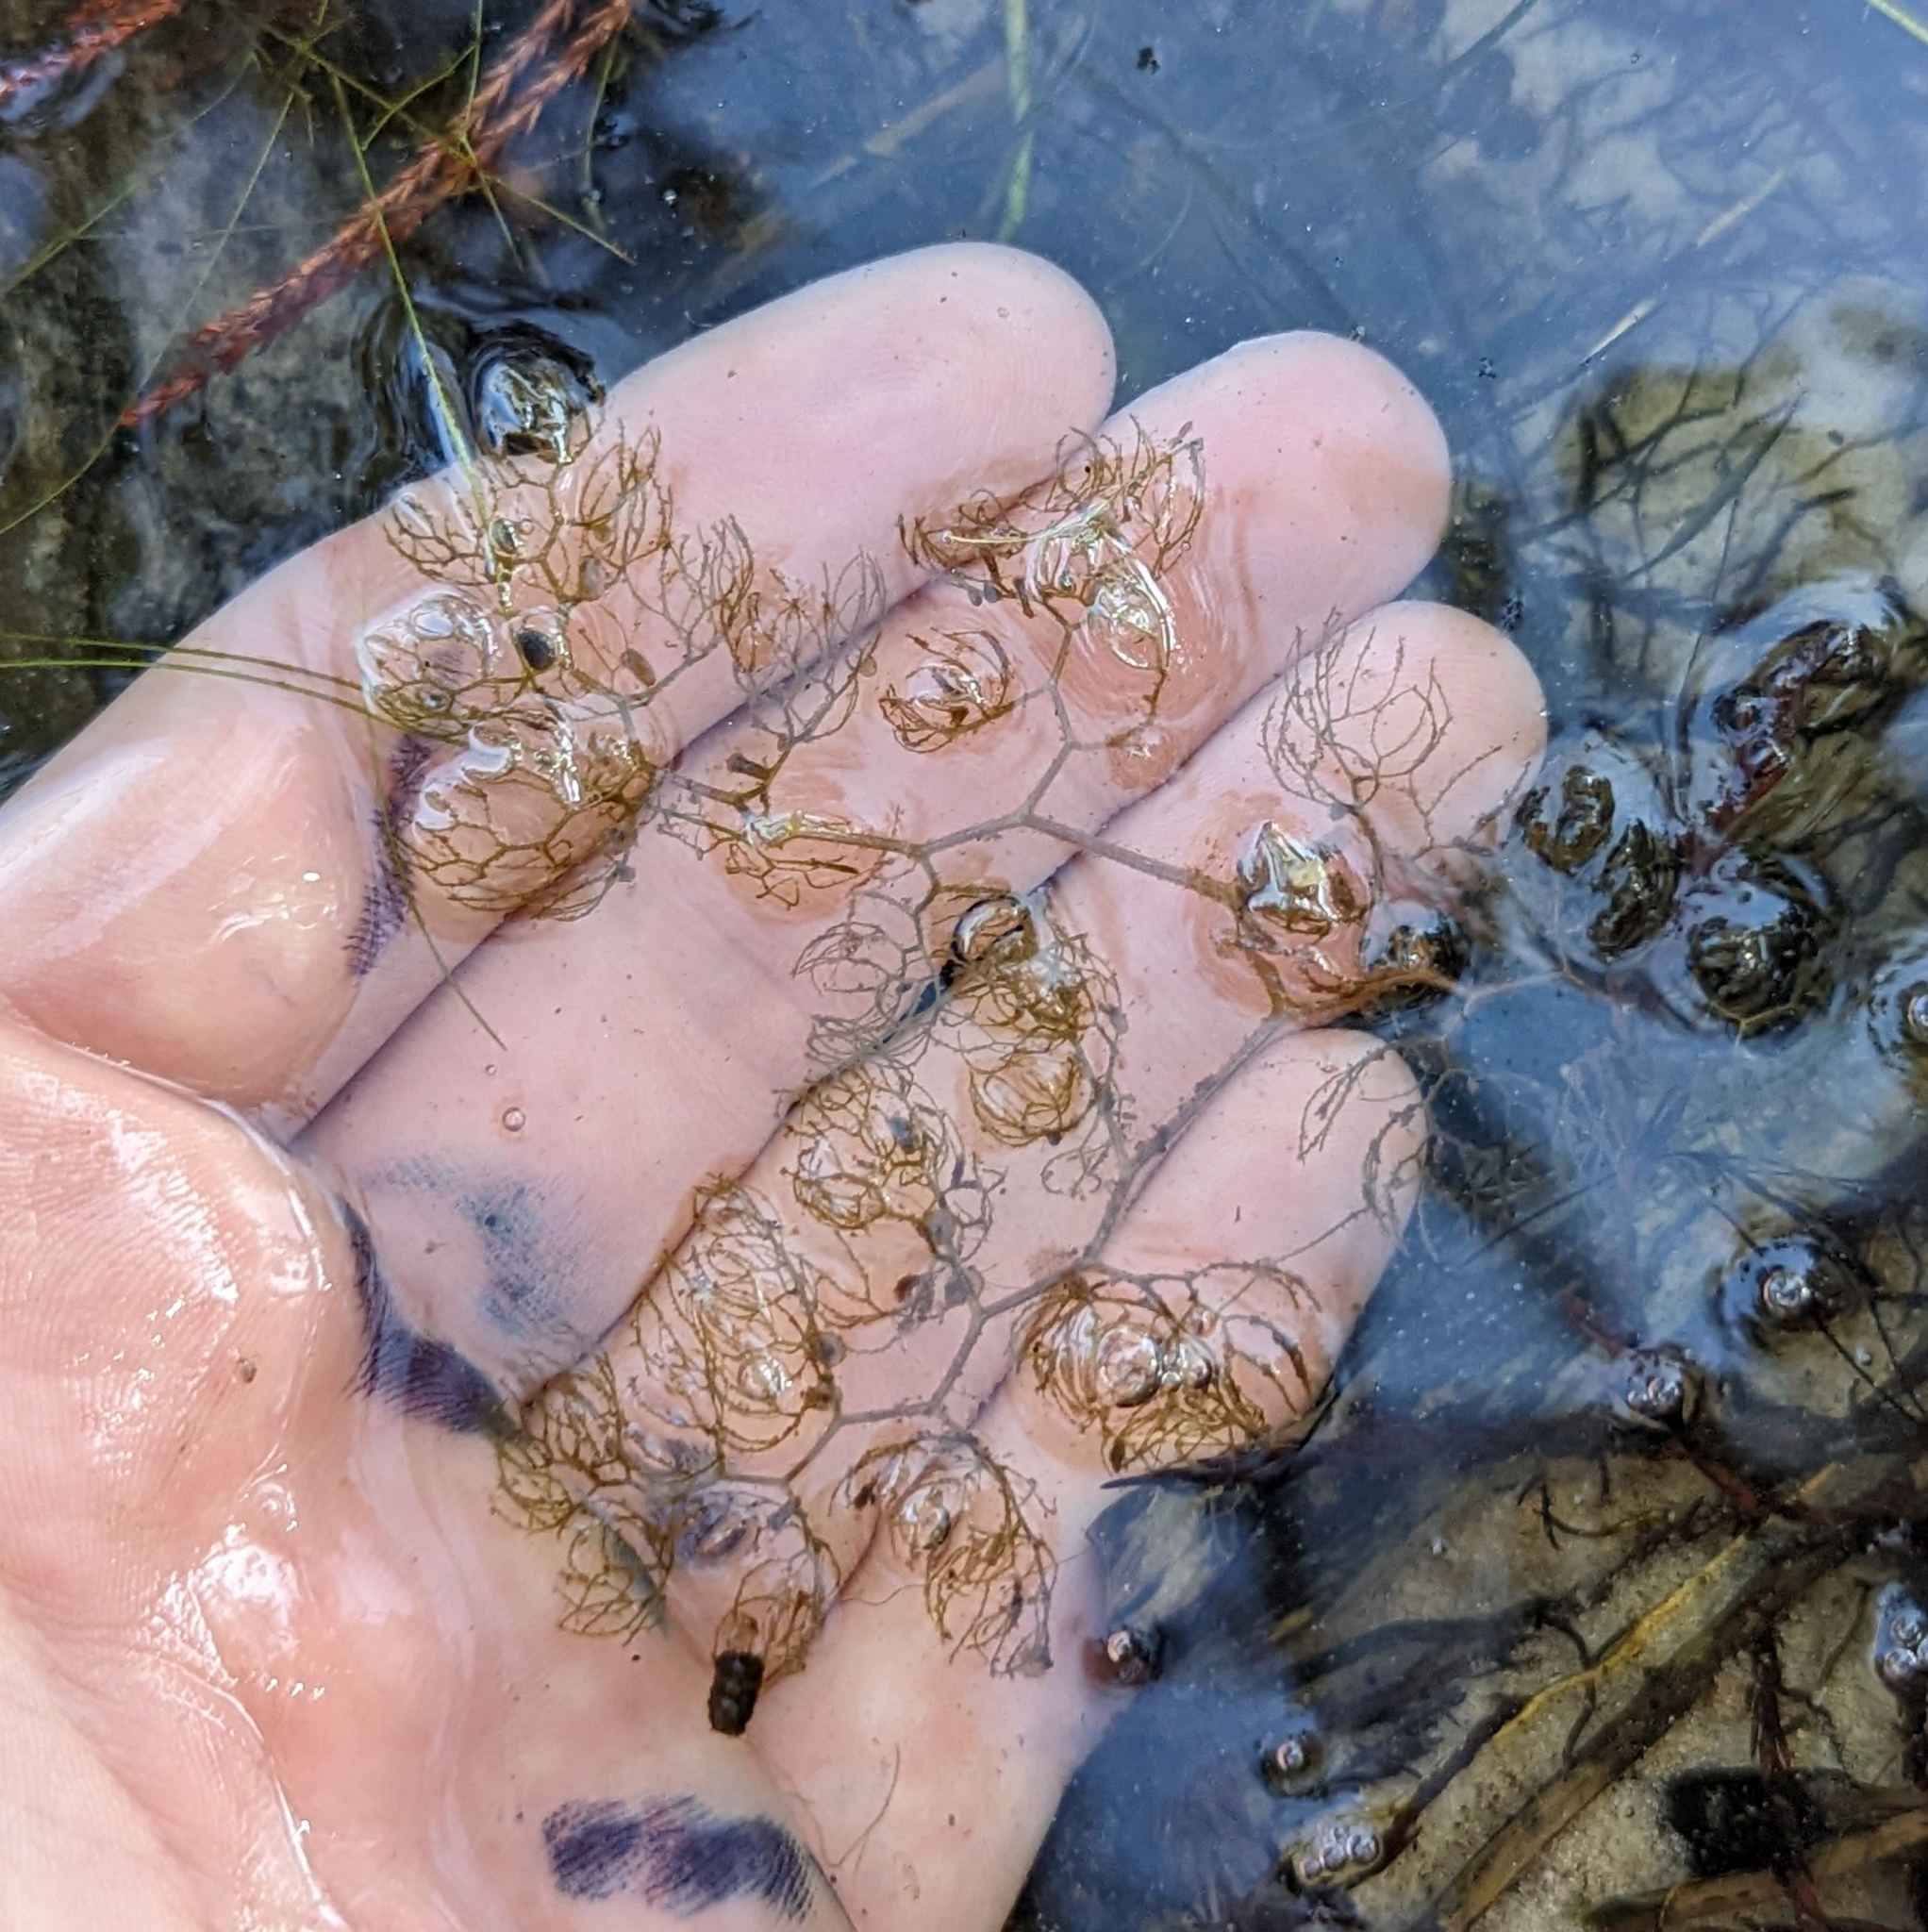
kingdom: Plantae
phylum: Tracheophyta
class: Magnoliopsida
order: Lamiales
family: Lentibulariaceae
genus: Utricularia
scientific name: Utricularia inflata
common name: Floating bladderwort
